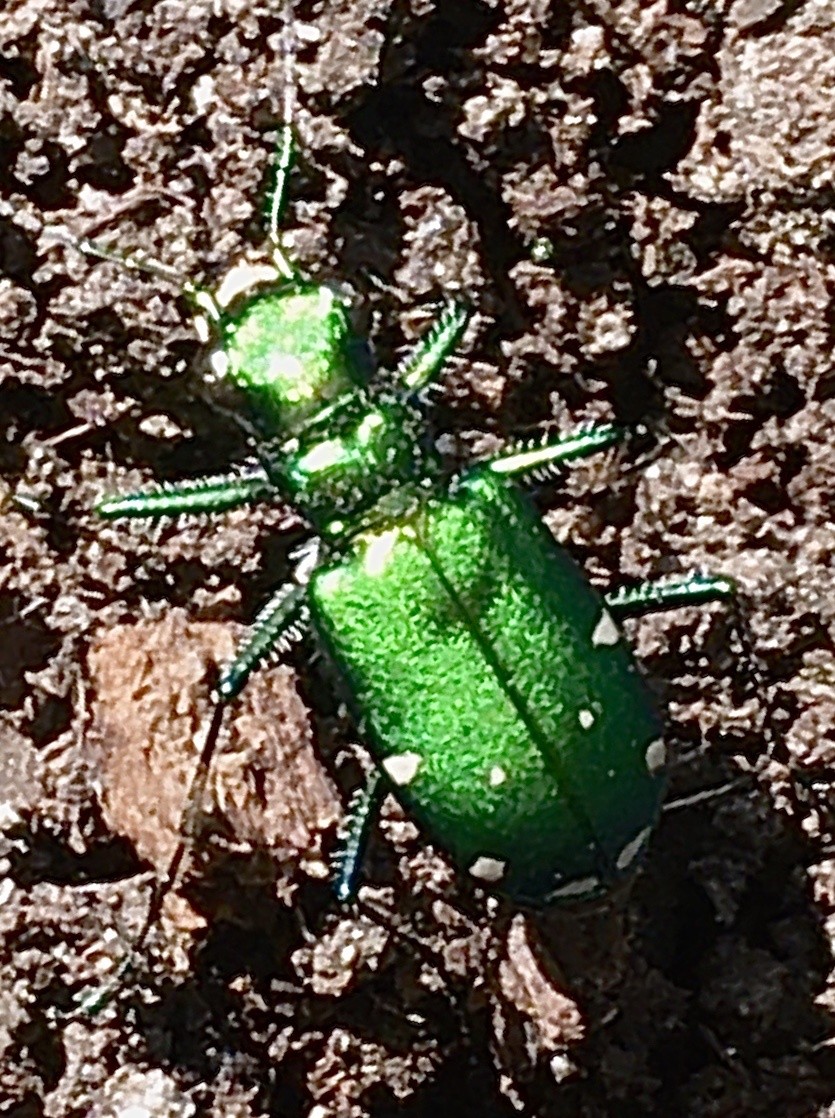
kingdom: Animalia
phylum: Arthropoda
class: Insecta
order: Coleoptera
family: Carabidae
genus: Cicindela
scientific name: Cicindela sexguttata
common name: Six-spotted tiger beetle
